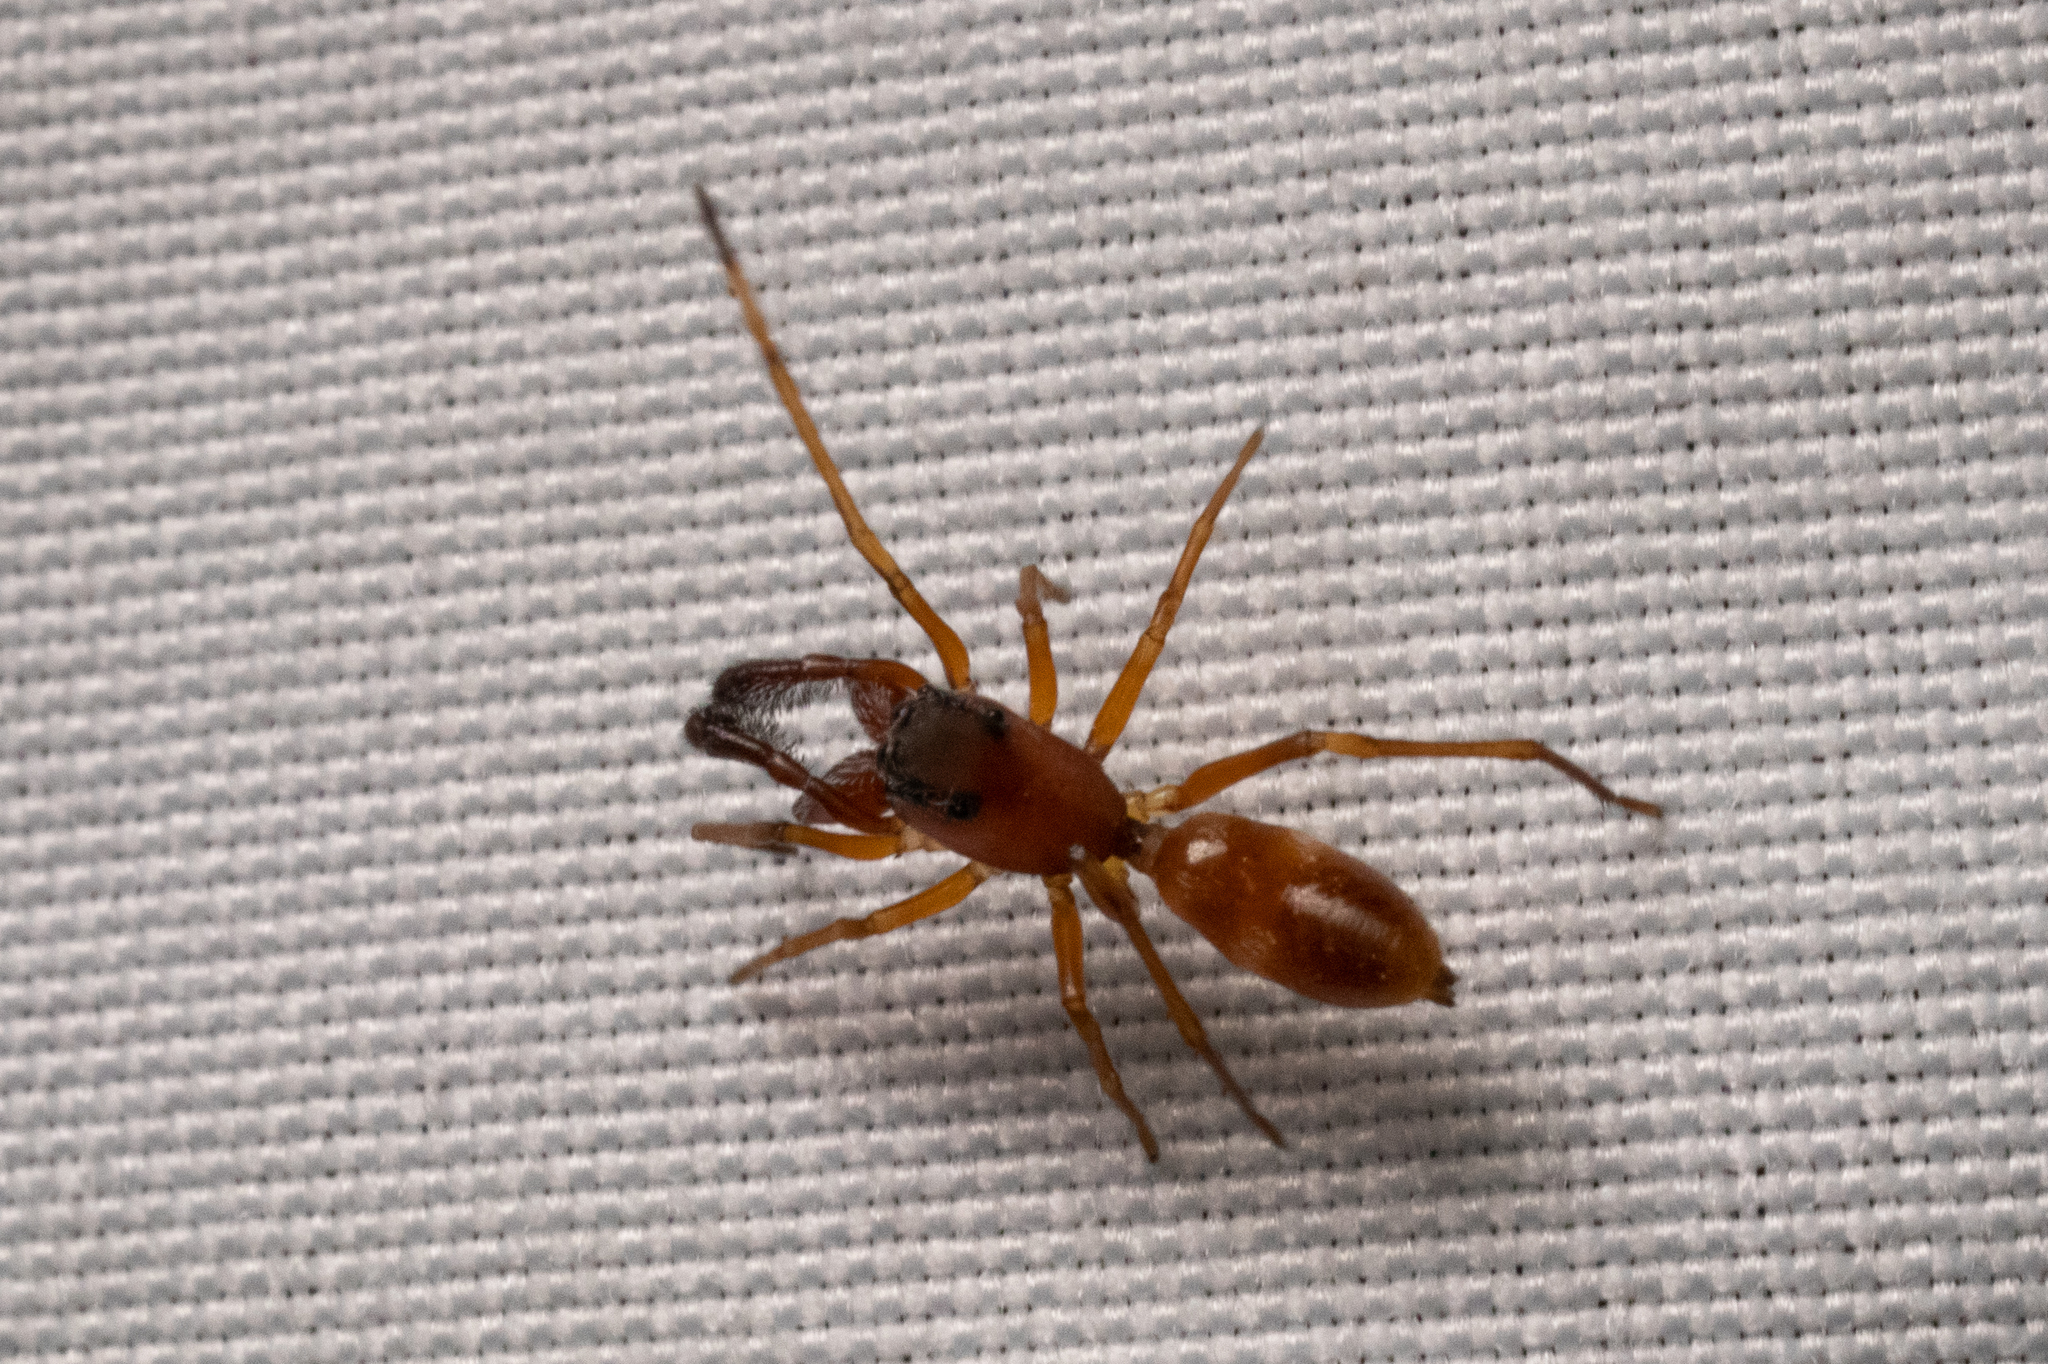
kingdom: Animalia
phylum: Arthropoda
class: Arachnida
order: Araneae
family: Salticidae
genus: Sarinda
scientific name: Sarinda hentzi
